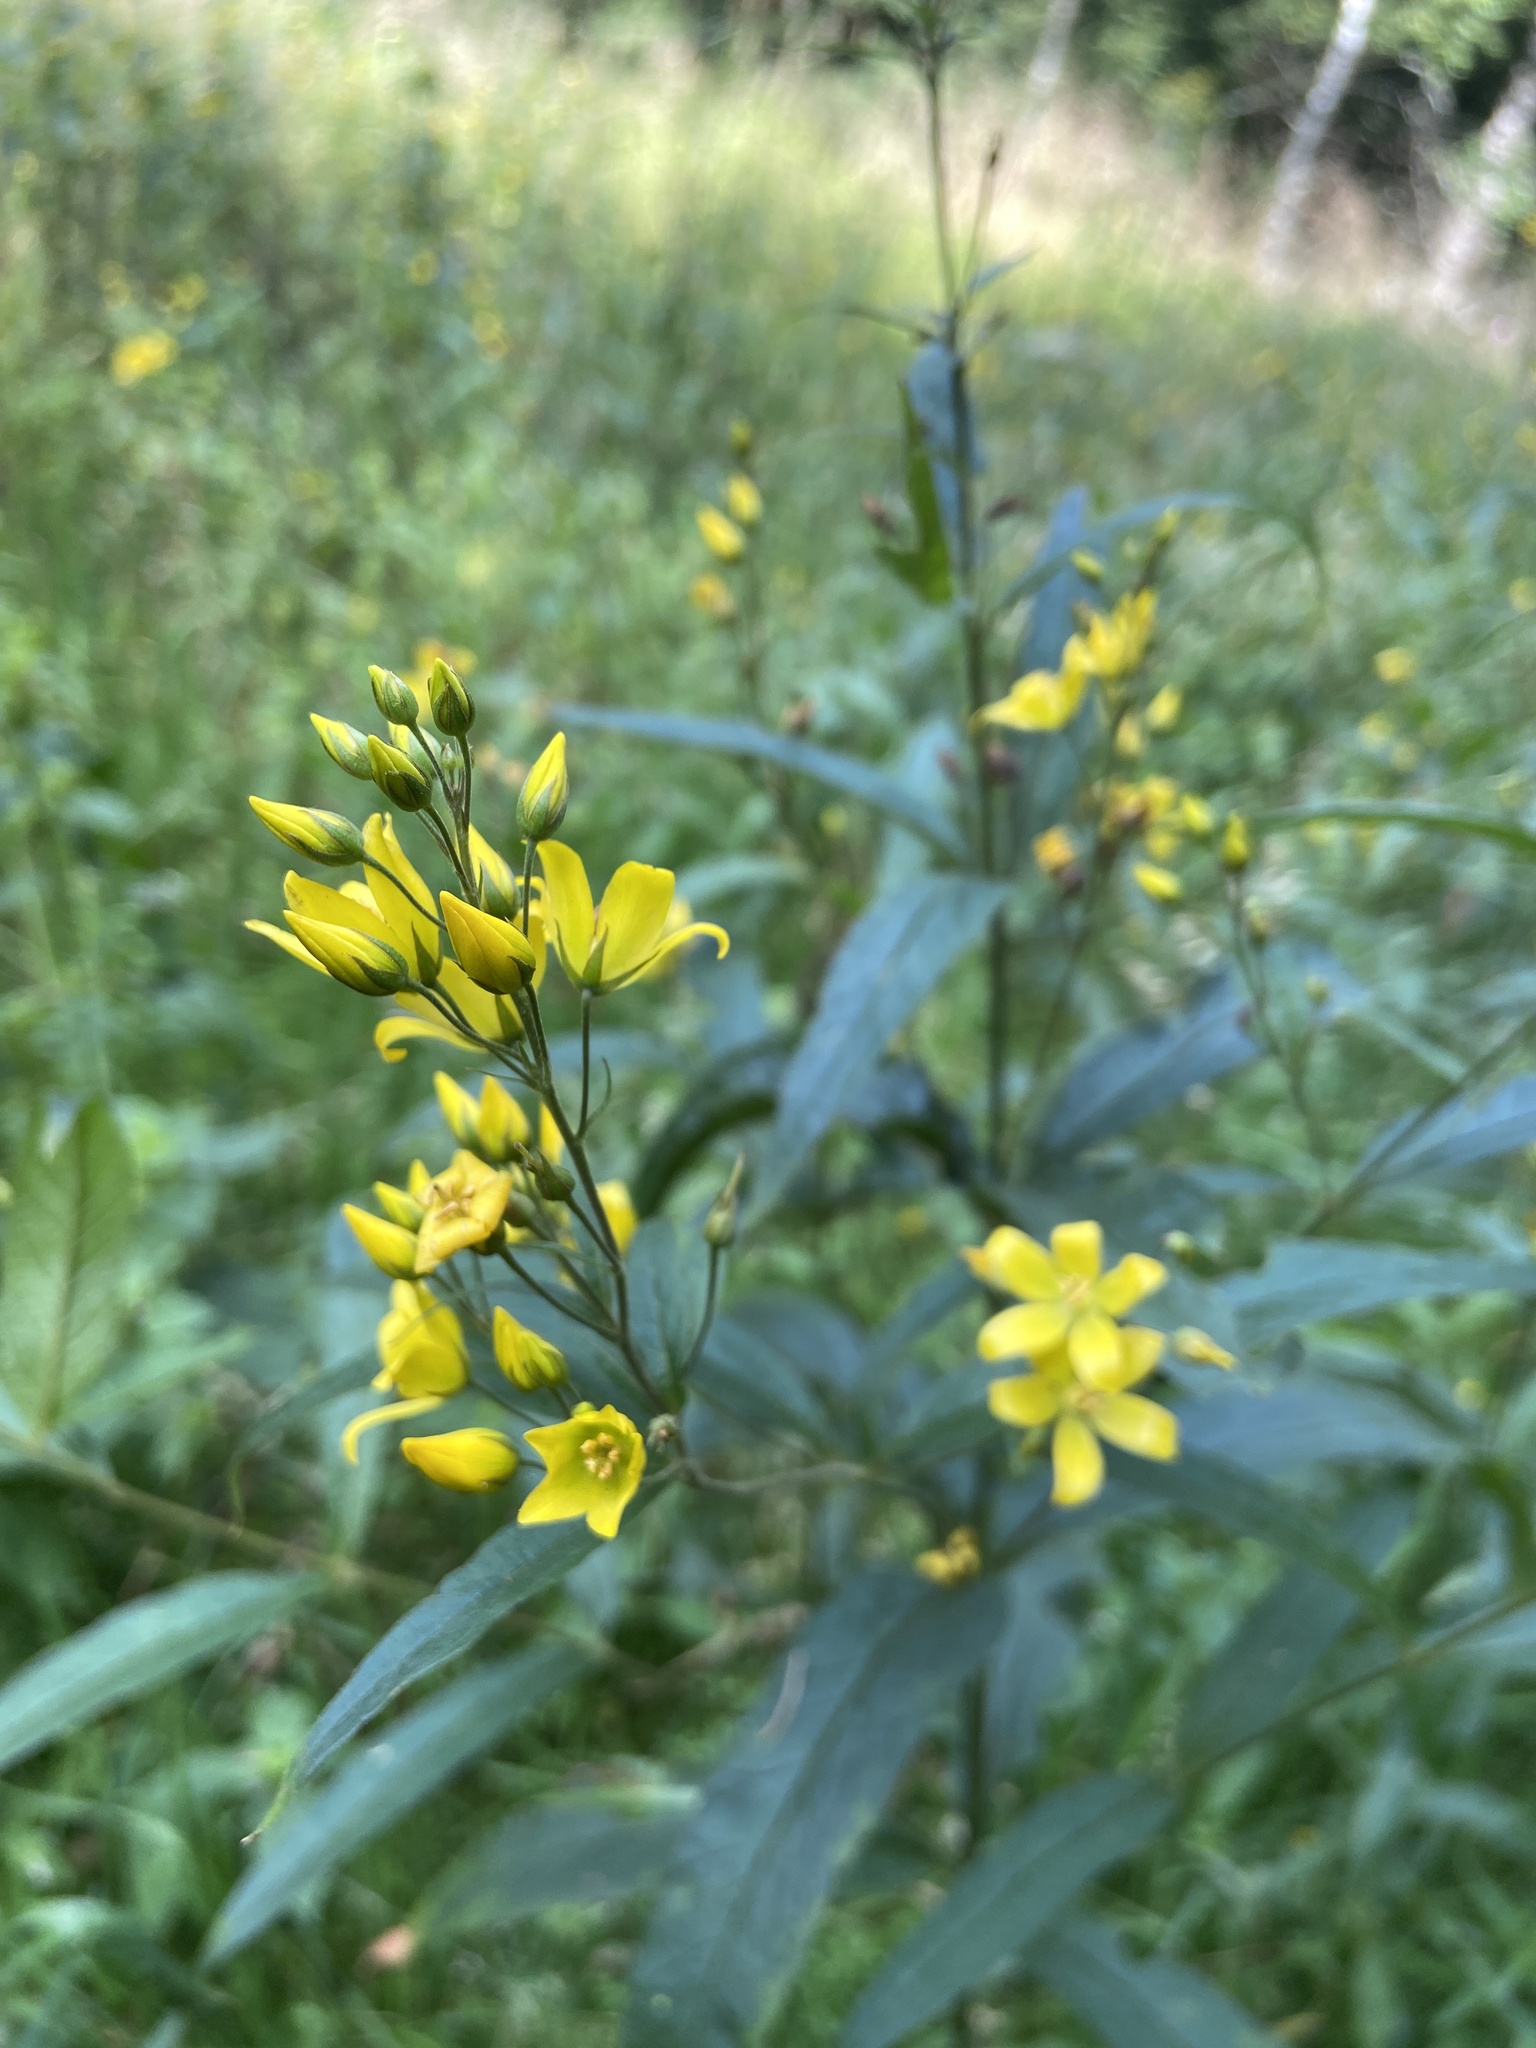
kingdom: Plantae
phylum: Tracheophyta
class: Magnoliopsida
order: Ericales
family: Primulaceae
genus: Lysimachia
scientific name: Lysimachia vulgaris
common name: Yellow loosestrife
